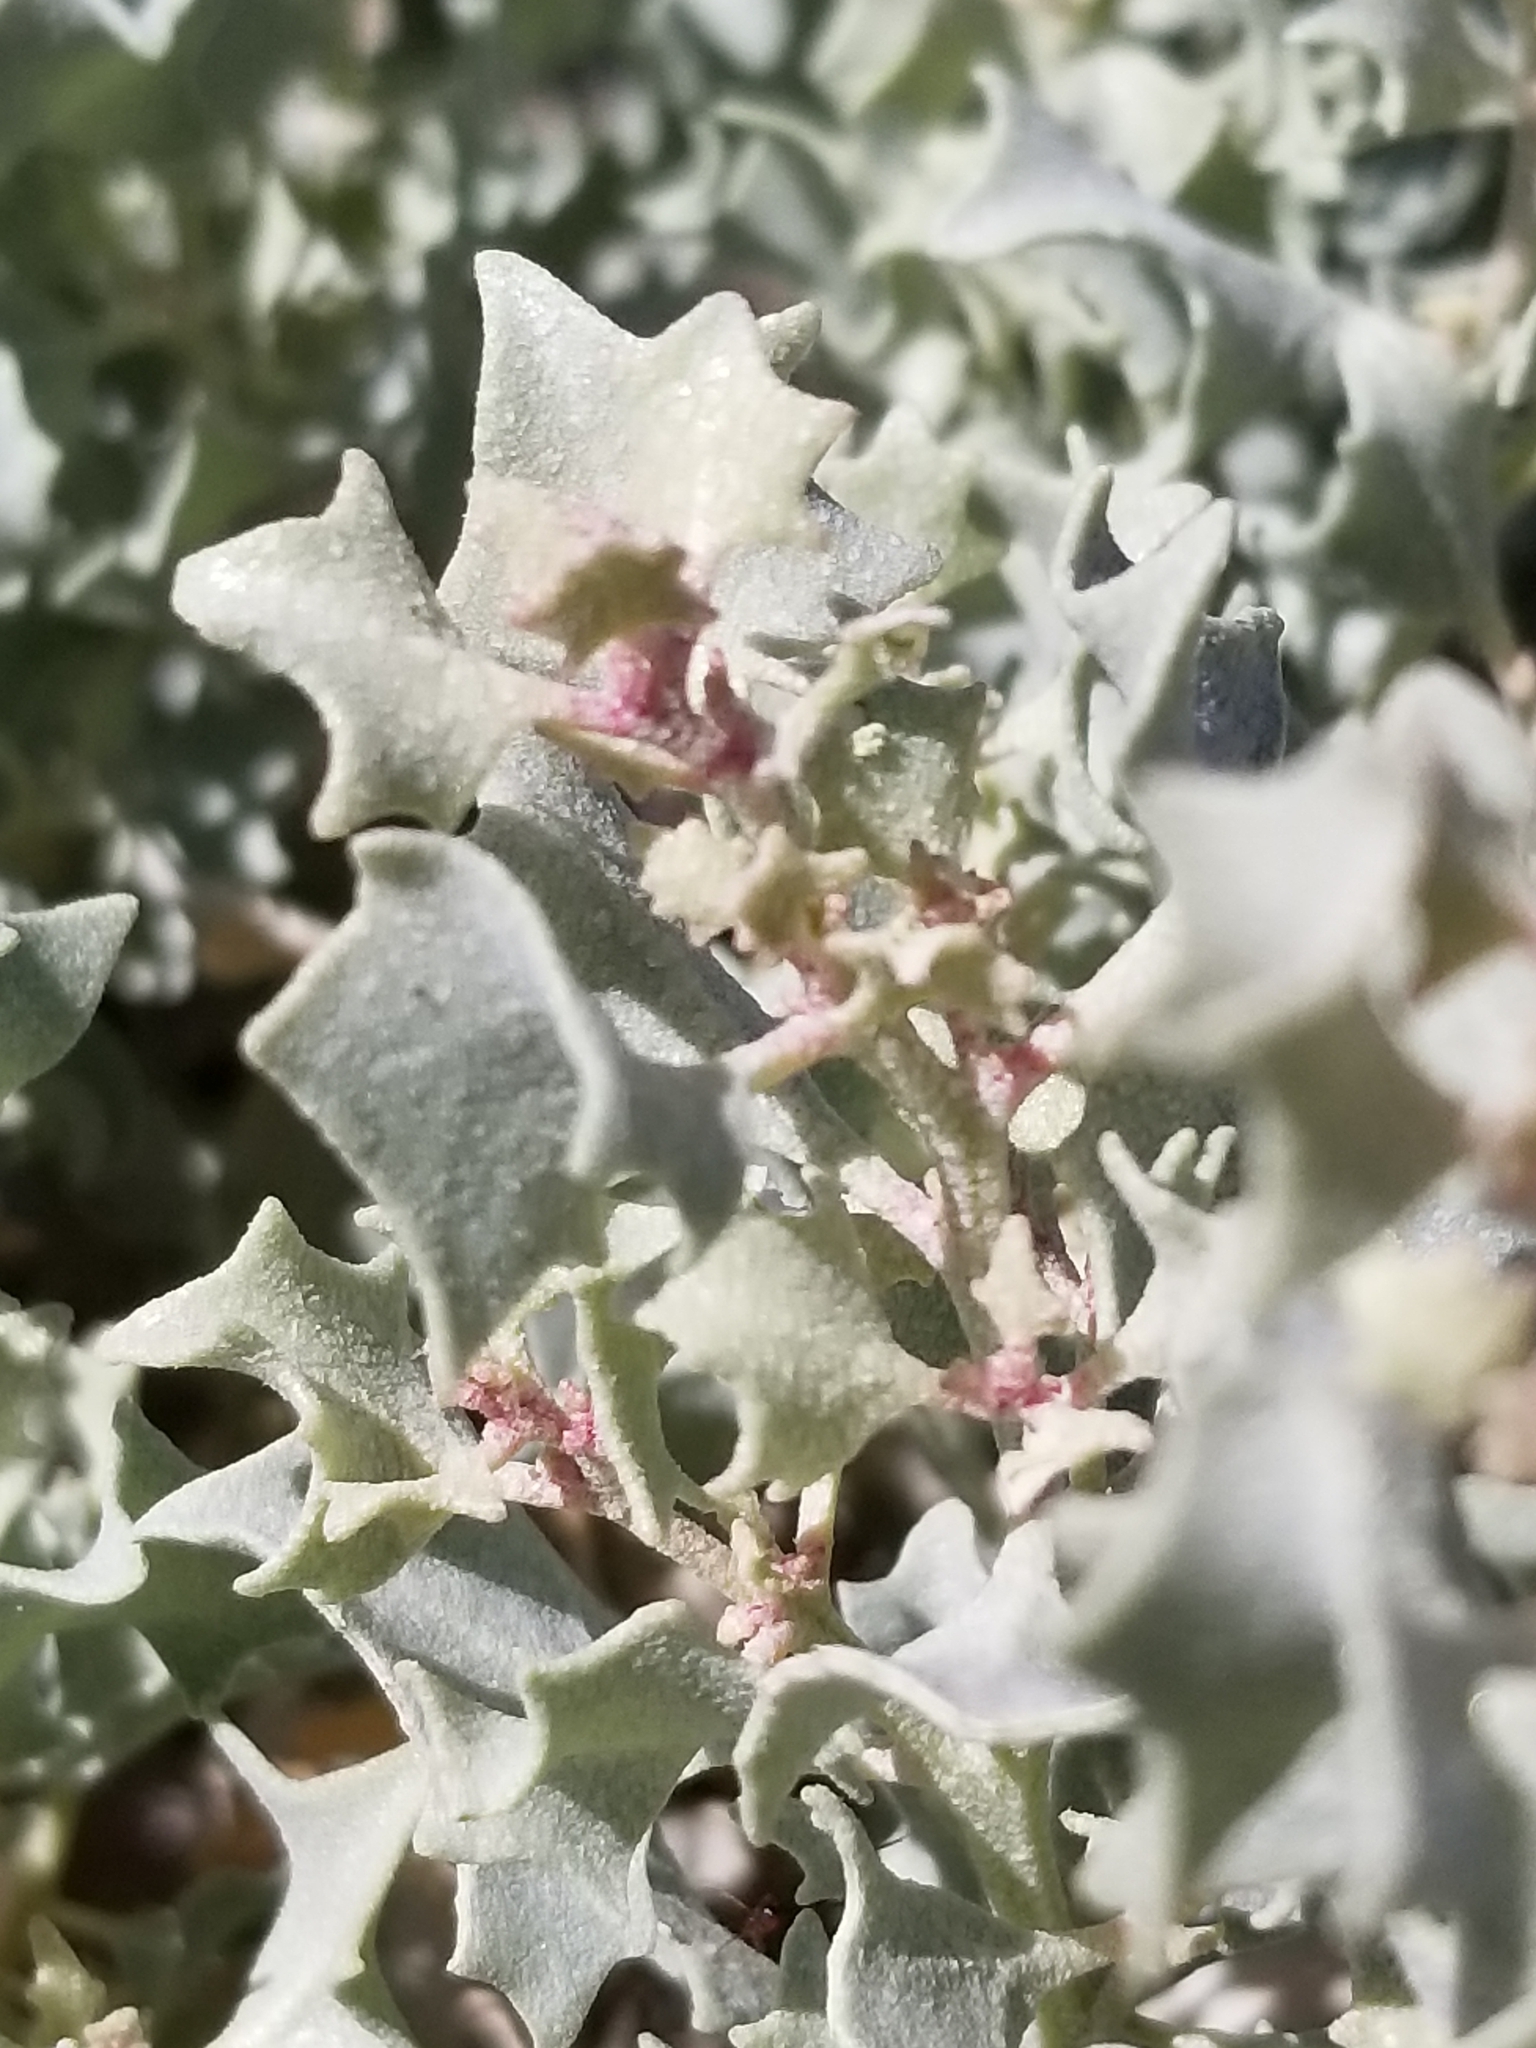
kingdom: Plantae
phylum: Tracheophyta
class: Magnoliopsida
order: Caryophyllales
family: Amaranthaceae
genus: Atriplex
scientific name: Atriplex hymenelytra
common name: Desert-holly
